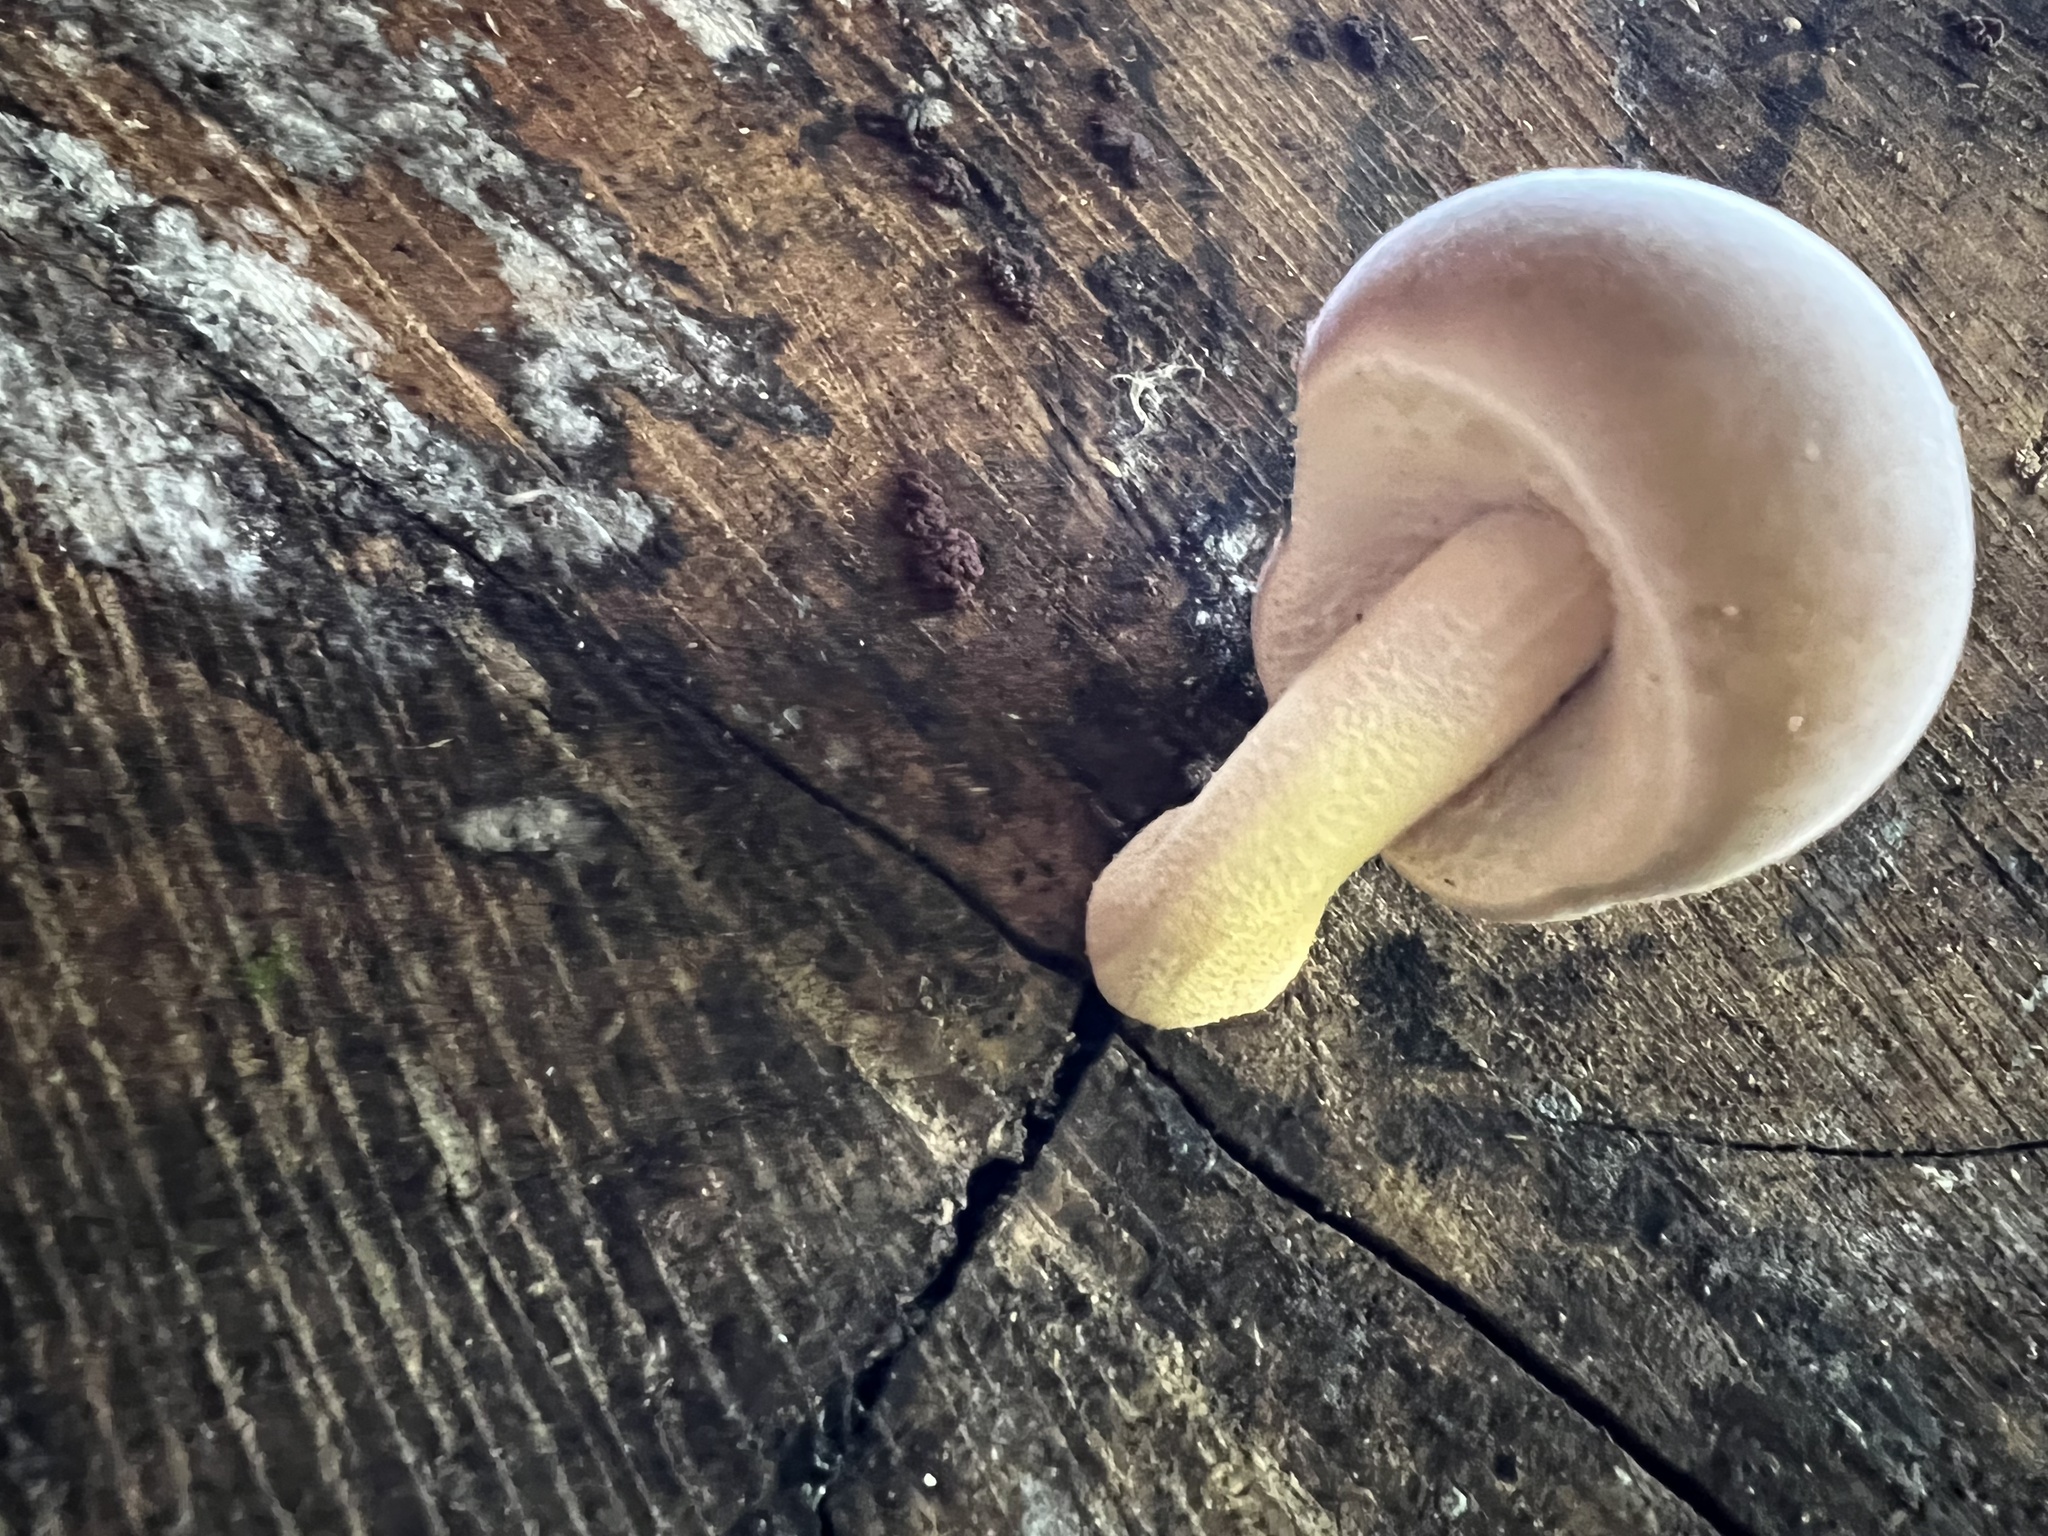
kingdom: Fungi
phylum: Basidiomycota
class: Agaricomycetes
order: Agaricales
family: Tubariaceae
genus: Cyclocybe
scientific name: Cyclocybe parasitica
